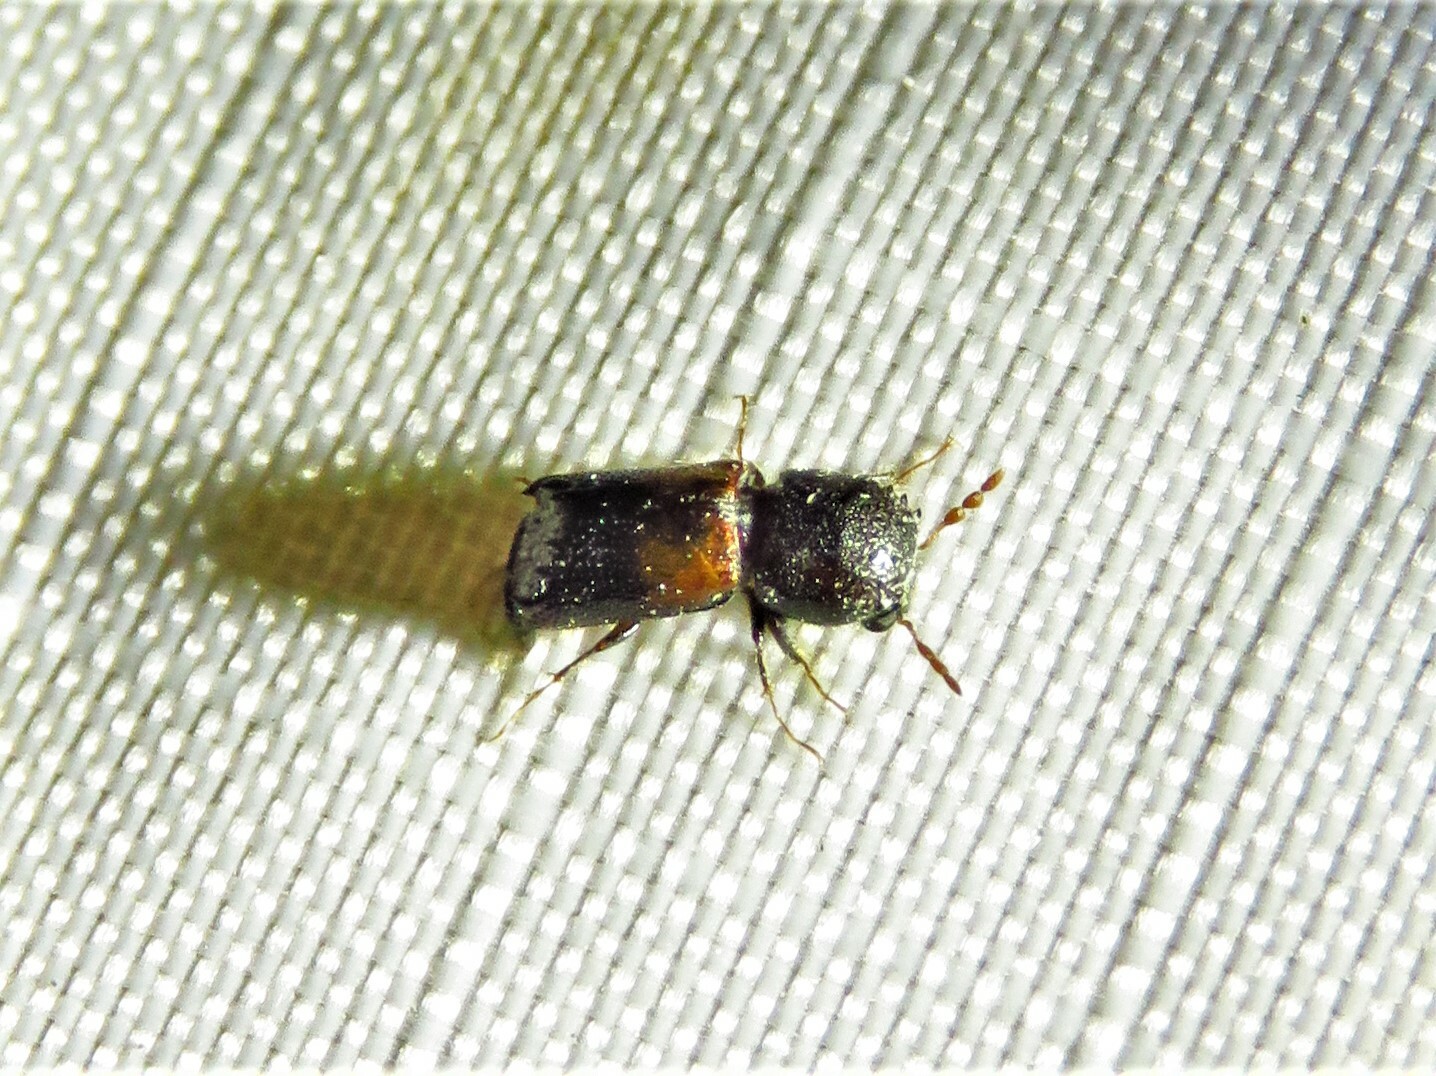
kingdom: Animalia
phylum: Arthropoda
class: Insecta
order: Coleoptera
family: Bostrichidae
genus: Xylobiops
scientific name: Xylobiops basilaris
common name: Red-shouldered bostrichid
